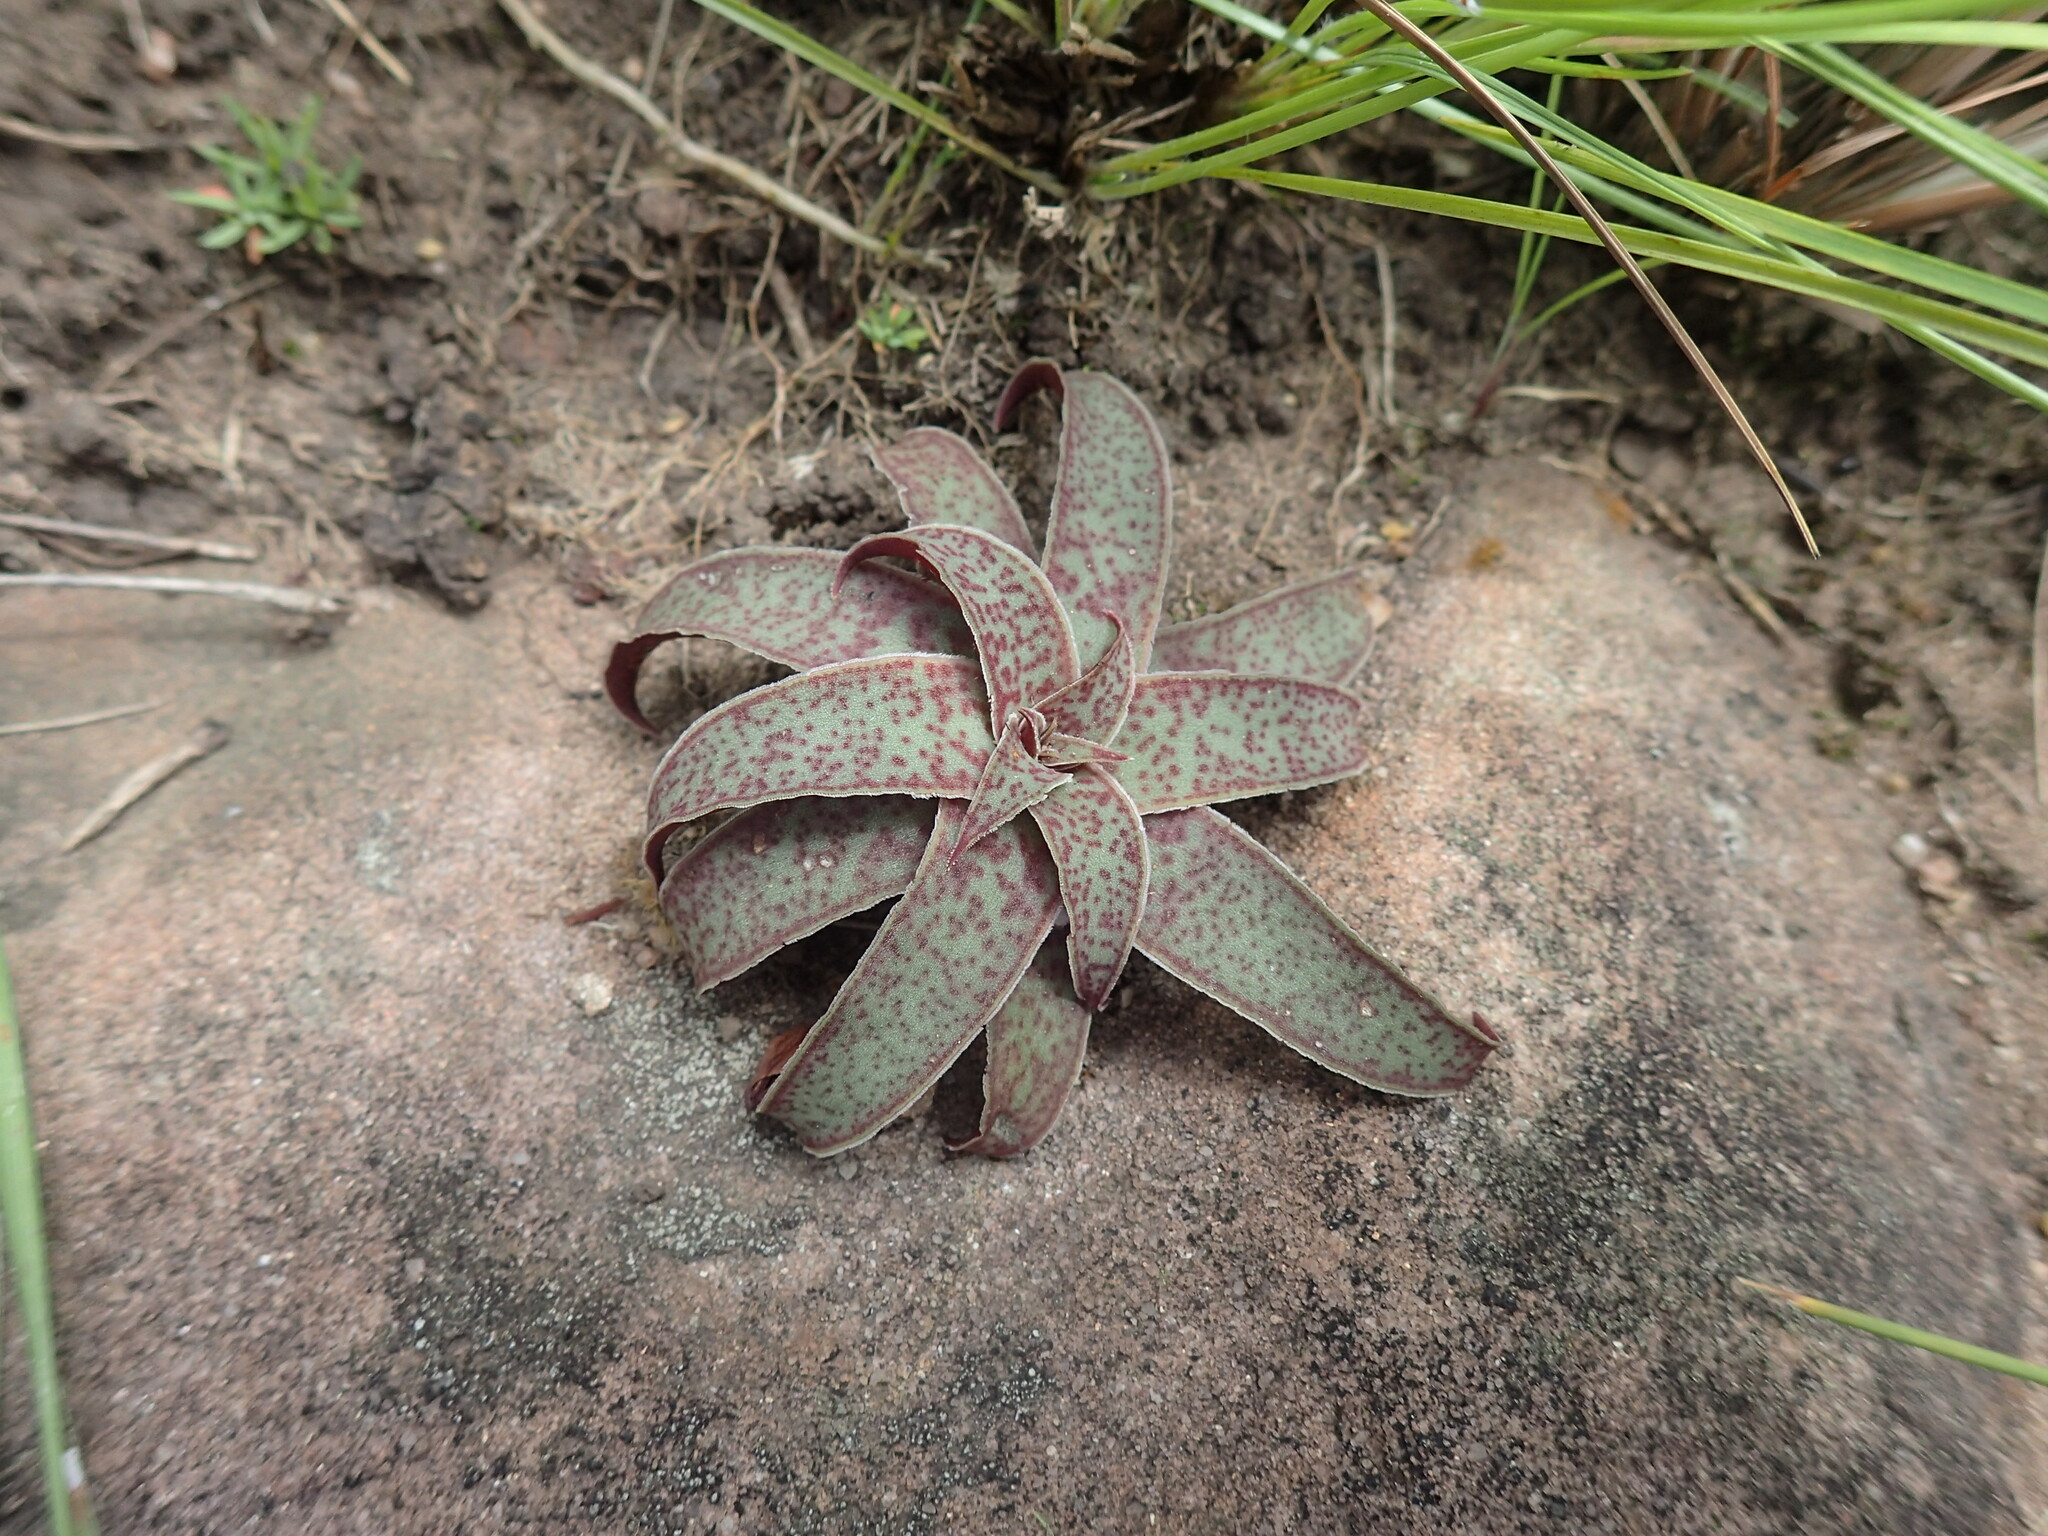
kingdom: Plantae
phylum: Tracheophyta
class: Magnoliopsida
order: Saxifragales
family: Crassulaceae
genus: Crassula
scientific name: Crassula alba
